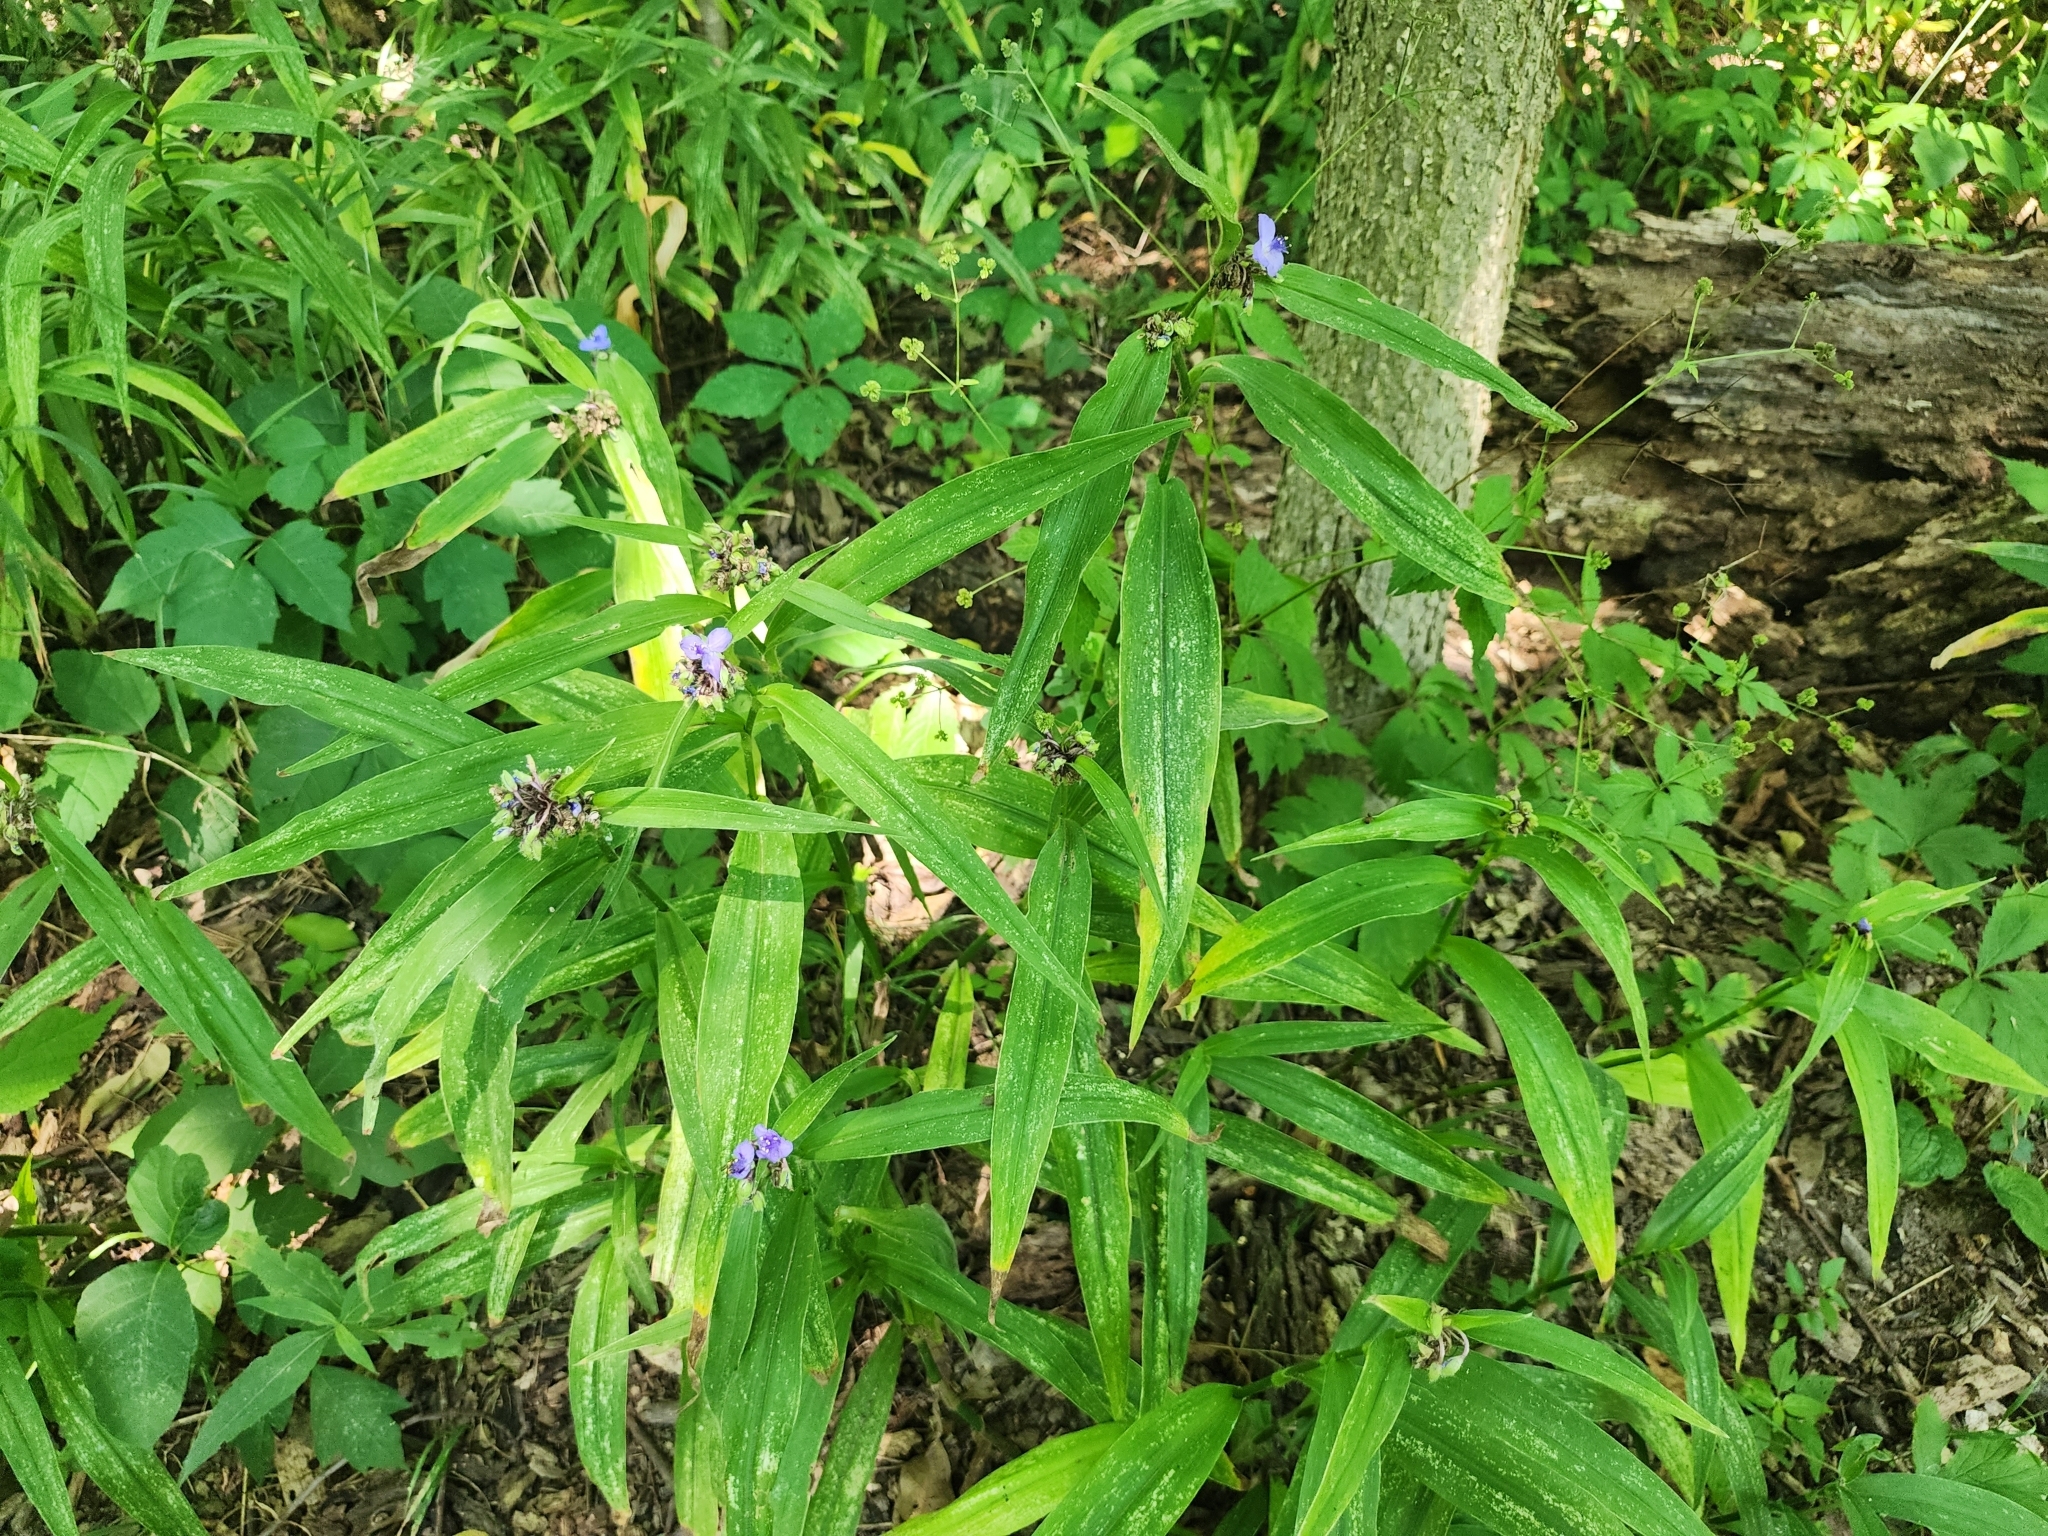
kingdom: Plantae
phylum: Tracheophyta
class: Liliopsida
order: Commelinales
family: Commelinaceae
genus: Tradescantia
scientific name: Tradescantia subaspera
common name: Wide-leaf spiderwort
